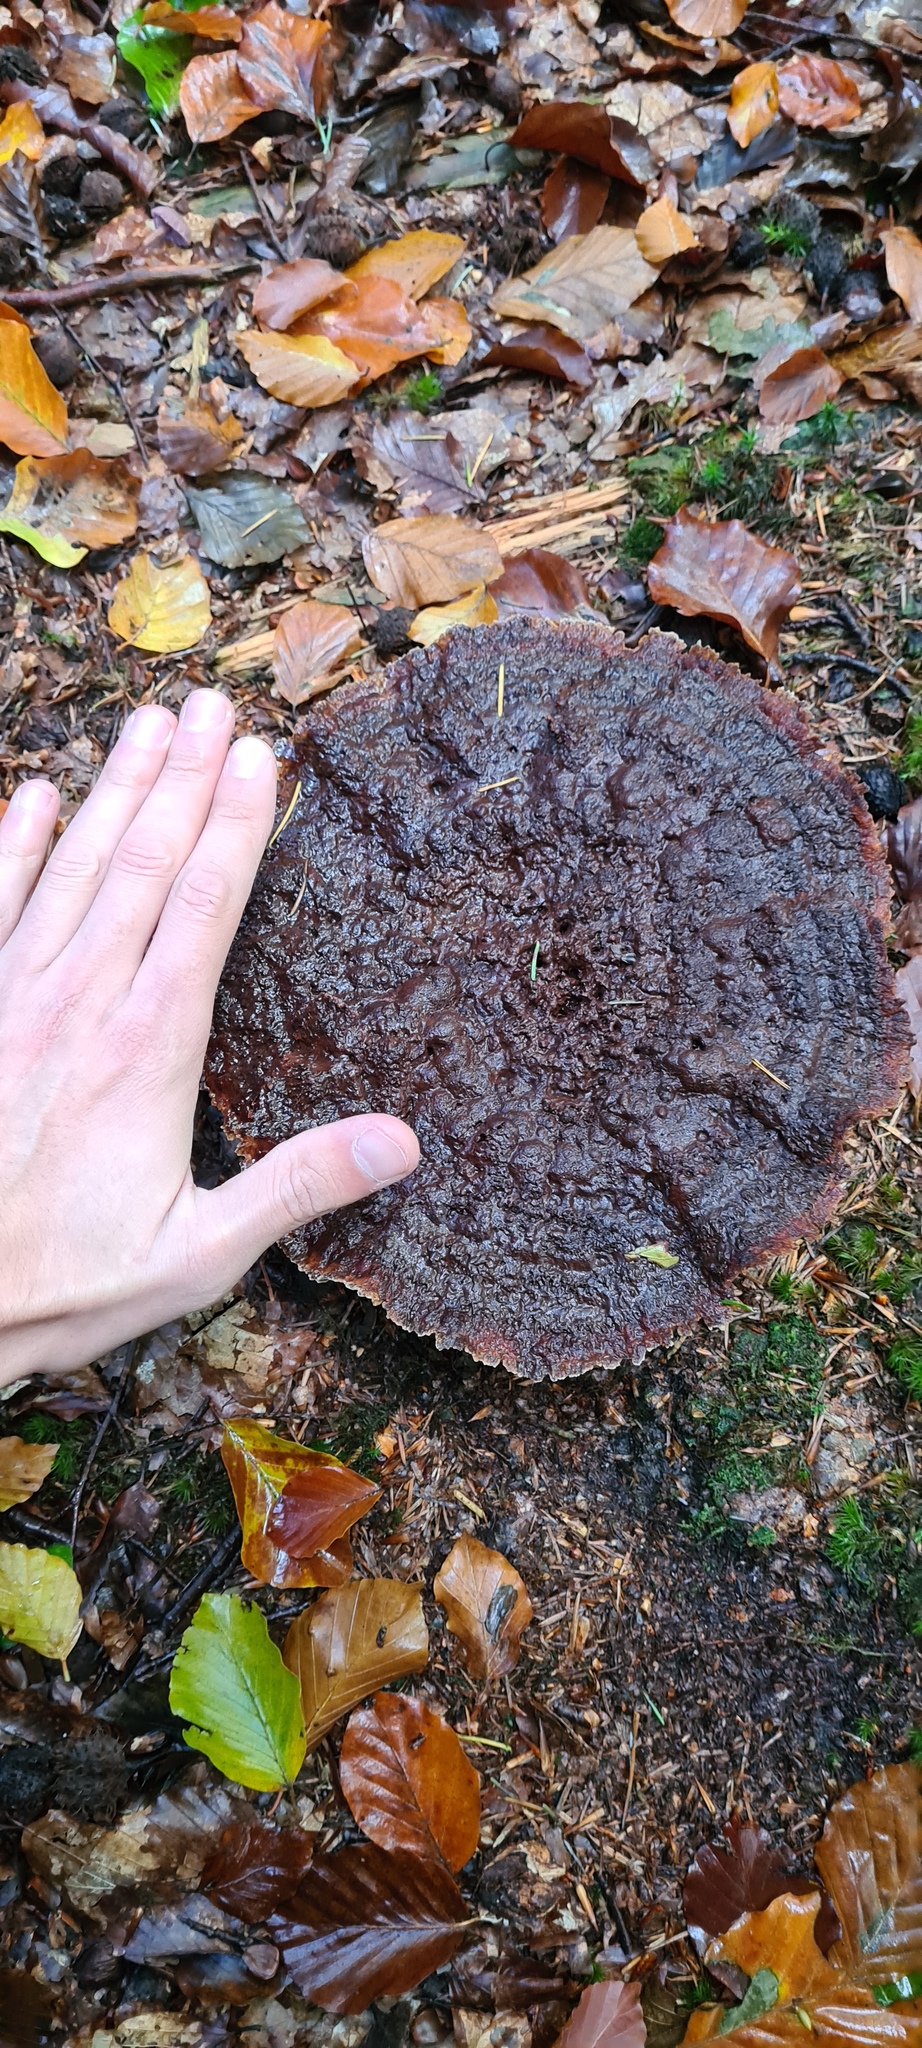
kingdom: Fungi
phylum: Basidiomycota
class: Agaricomycetes
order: Polyporales
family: Laetiporaceae
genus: Phaeolus
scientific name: Phaeolus schweinitzii
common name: Dyer's mazegill
